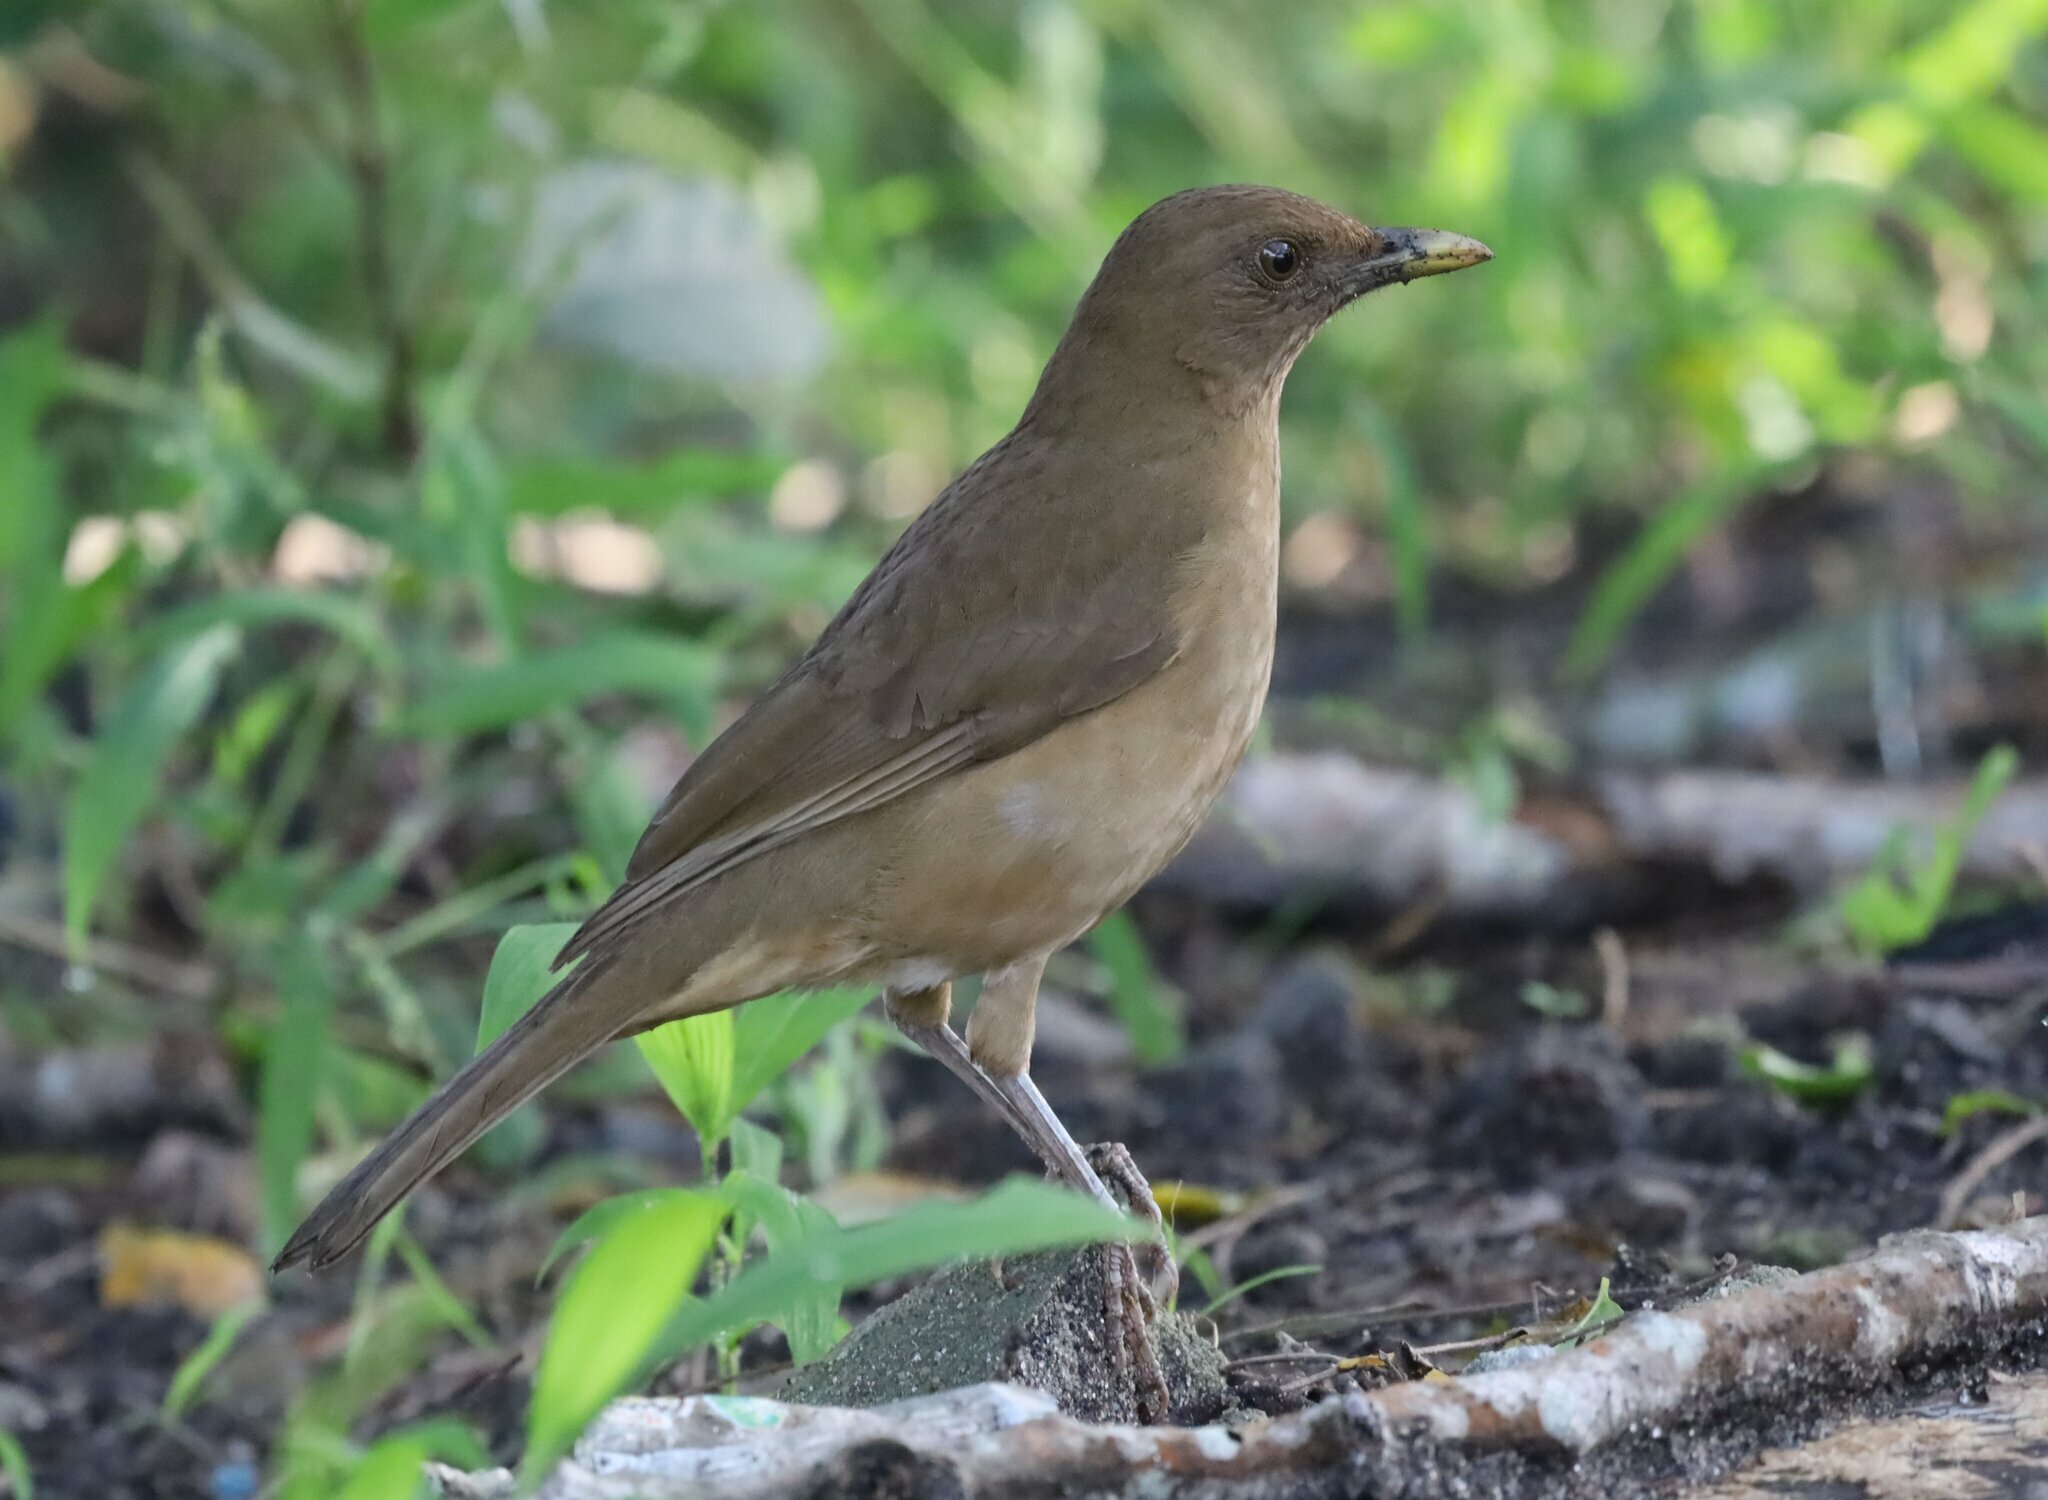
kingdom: Animalia
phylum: Chordata
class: Aves
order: Passeriformes
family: Turdidae
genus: Turdus
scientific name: Turdus grayi
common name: Clay-colored thrush
